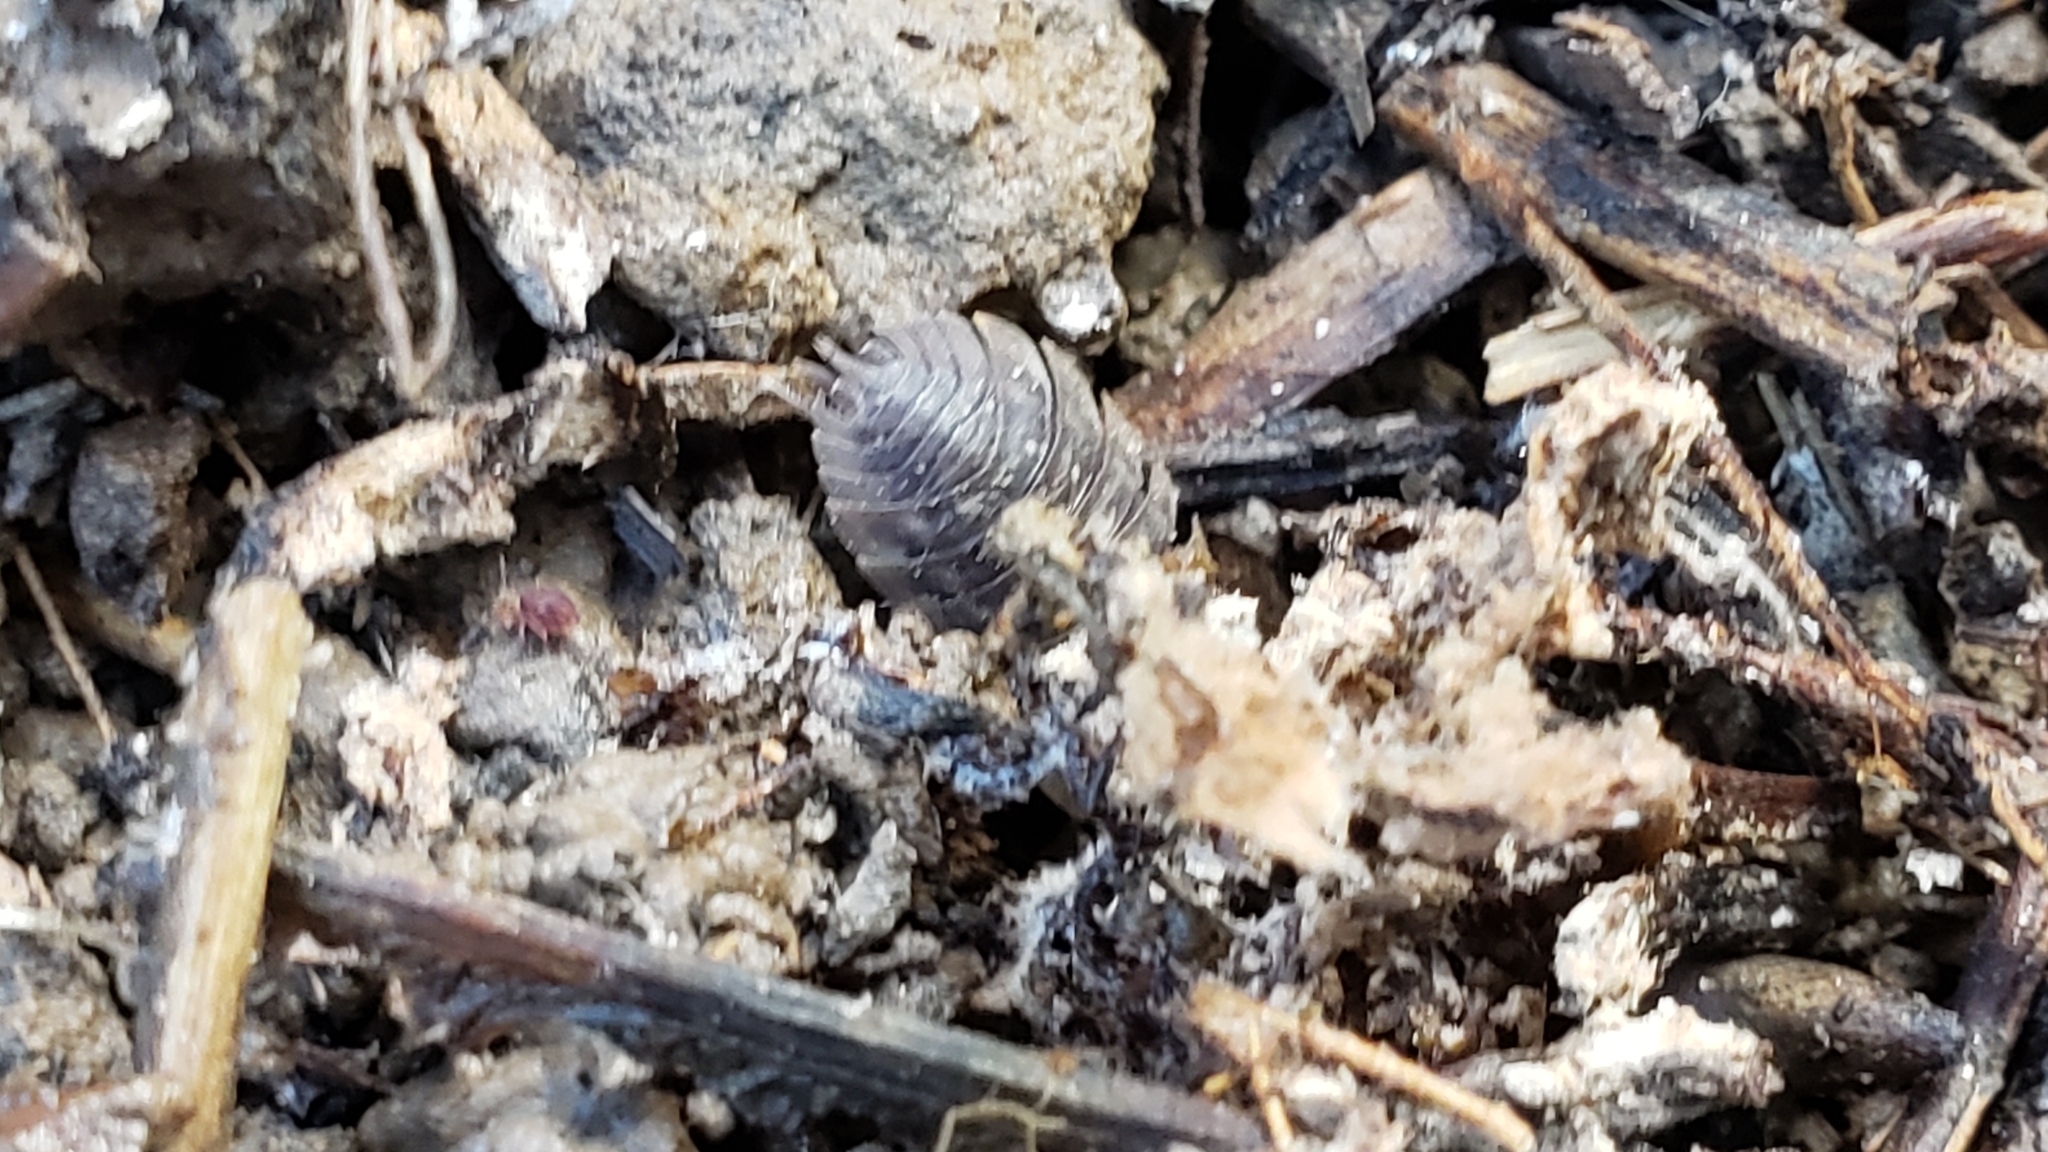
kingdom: Animalia
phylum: Arthropoda
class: Malacostraca
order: Isopoda
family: Oniscidae
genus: Oniscus
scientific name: Oniscus asellus
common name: Common shiny woodlouse
